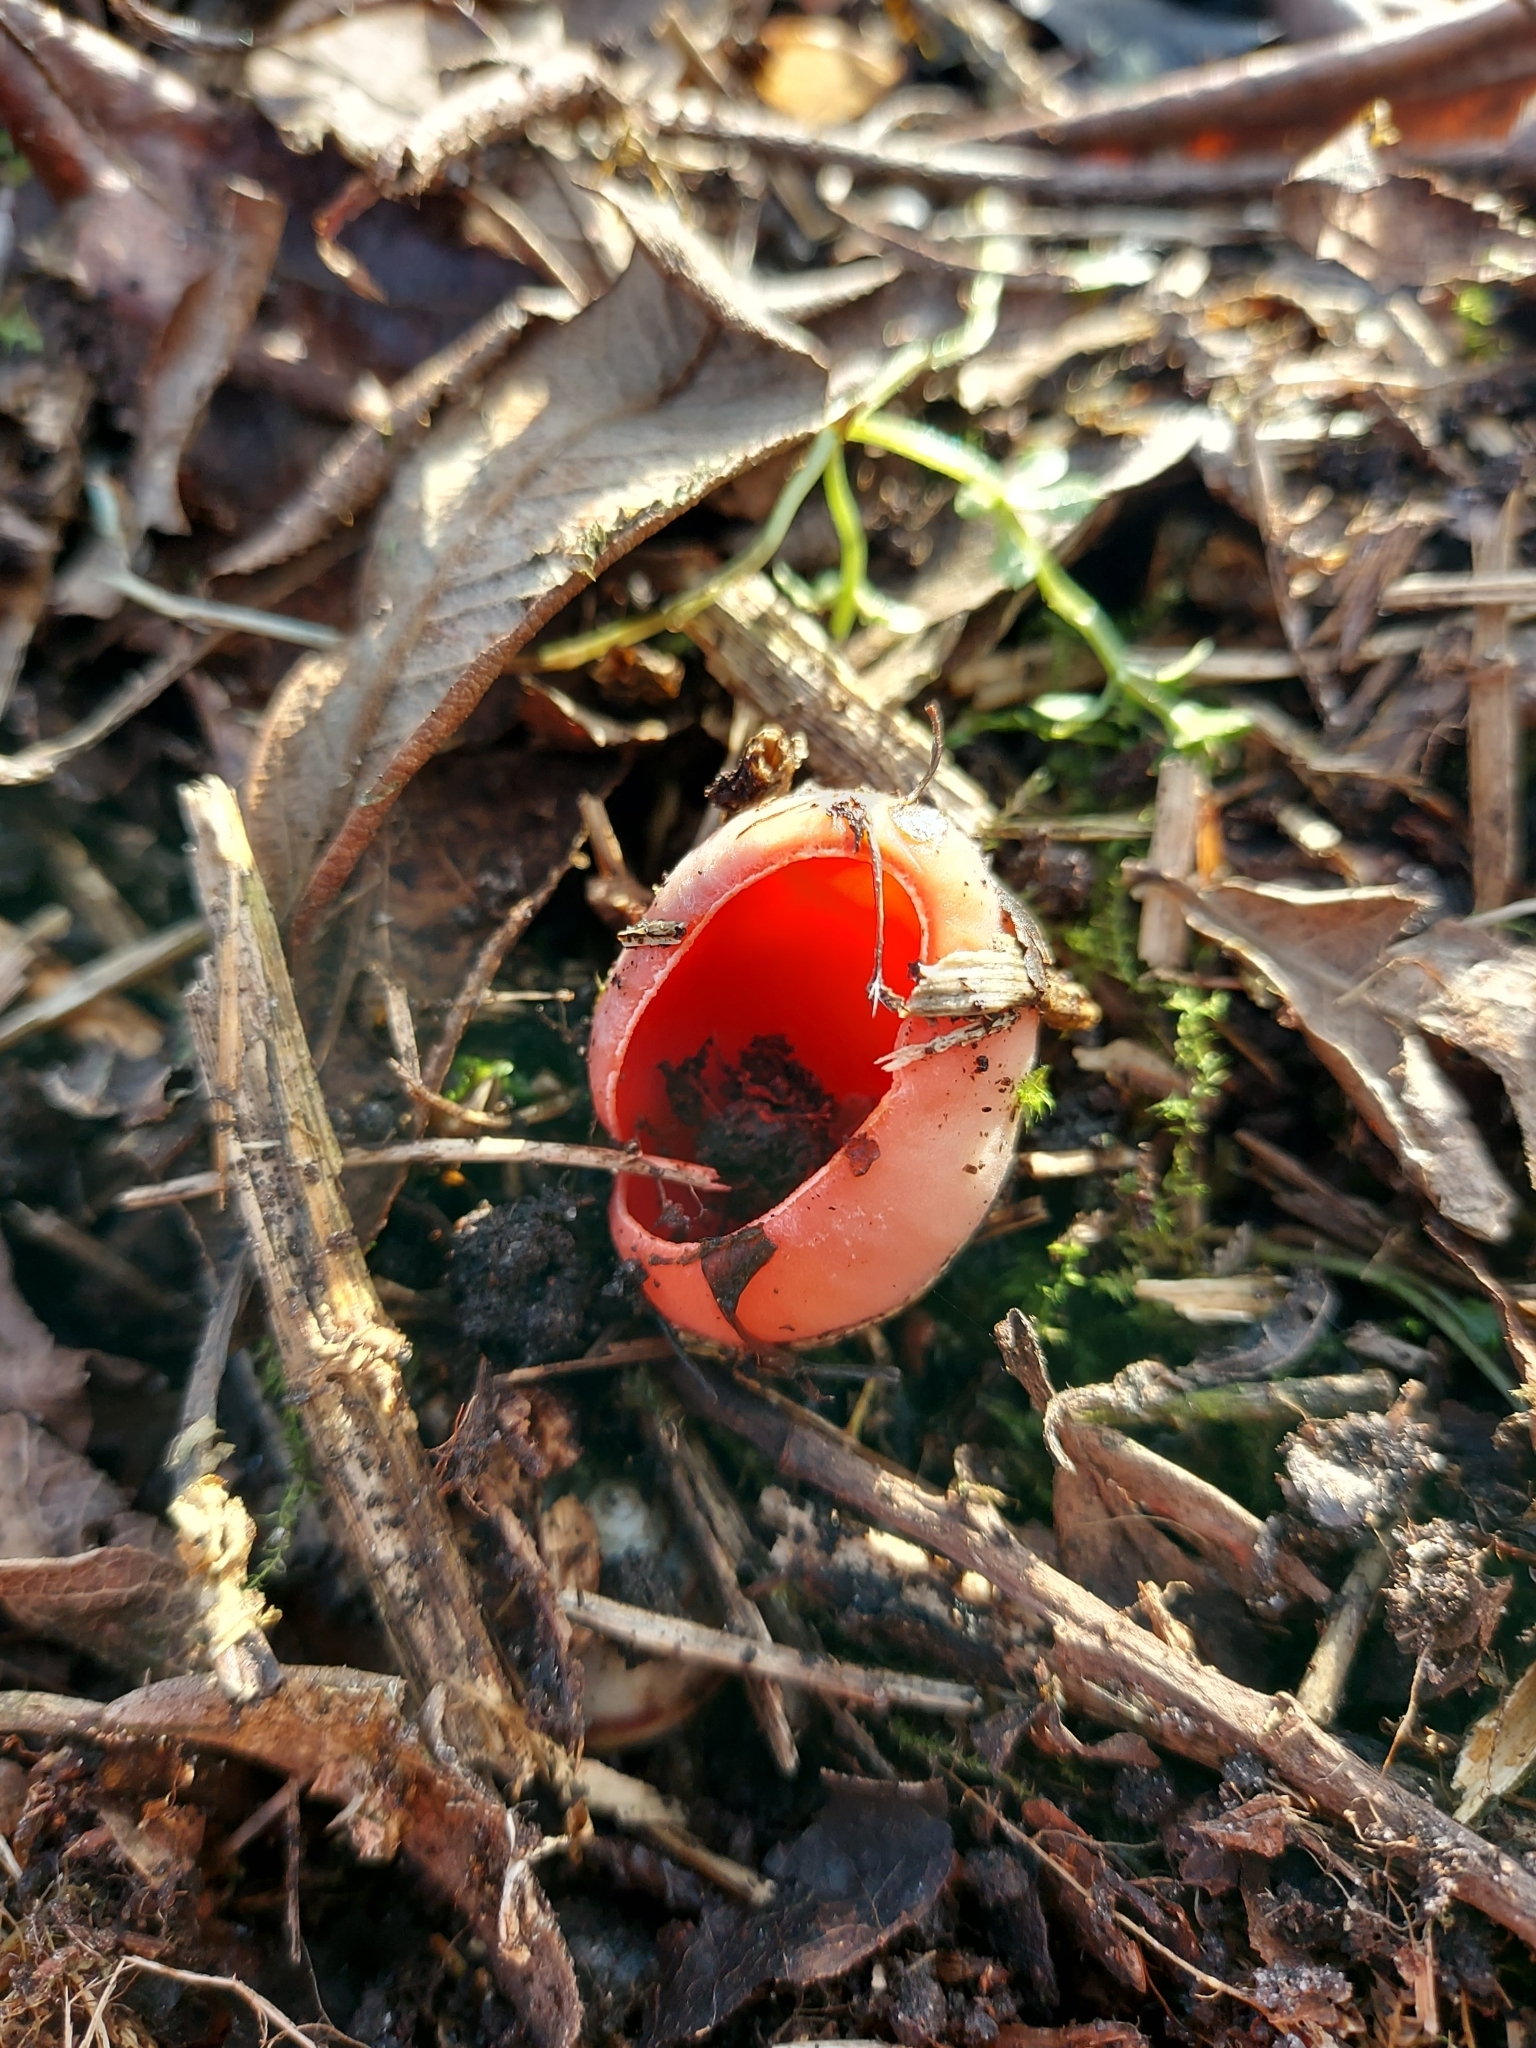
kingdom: Fungi
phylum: Ascomycota
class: Pezizomycetes
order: Pezizales
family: Sarcoscyphaceae
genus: Sarcoscypha
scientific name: Sarcoscypha
